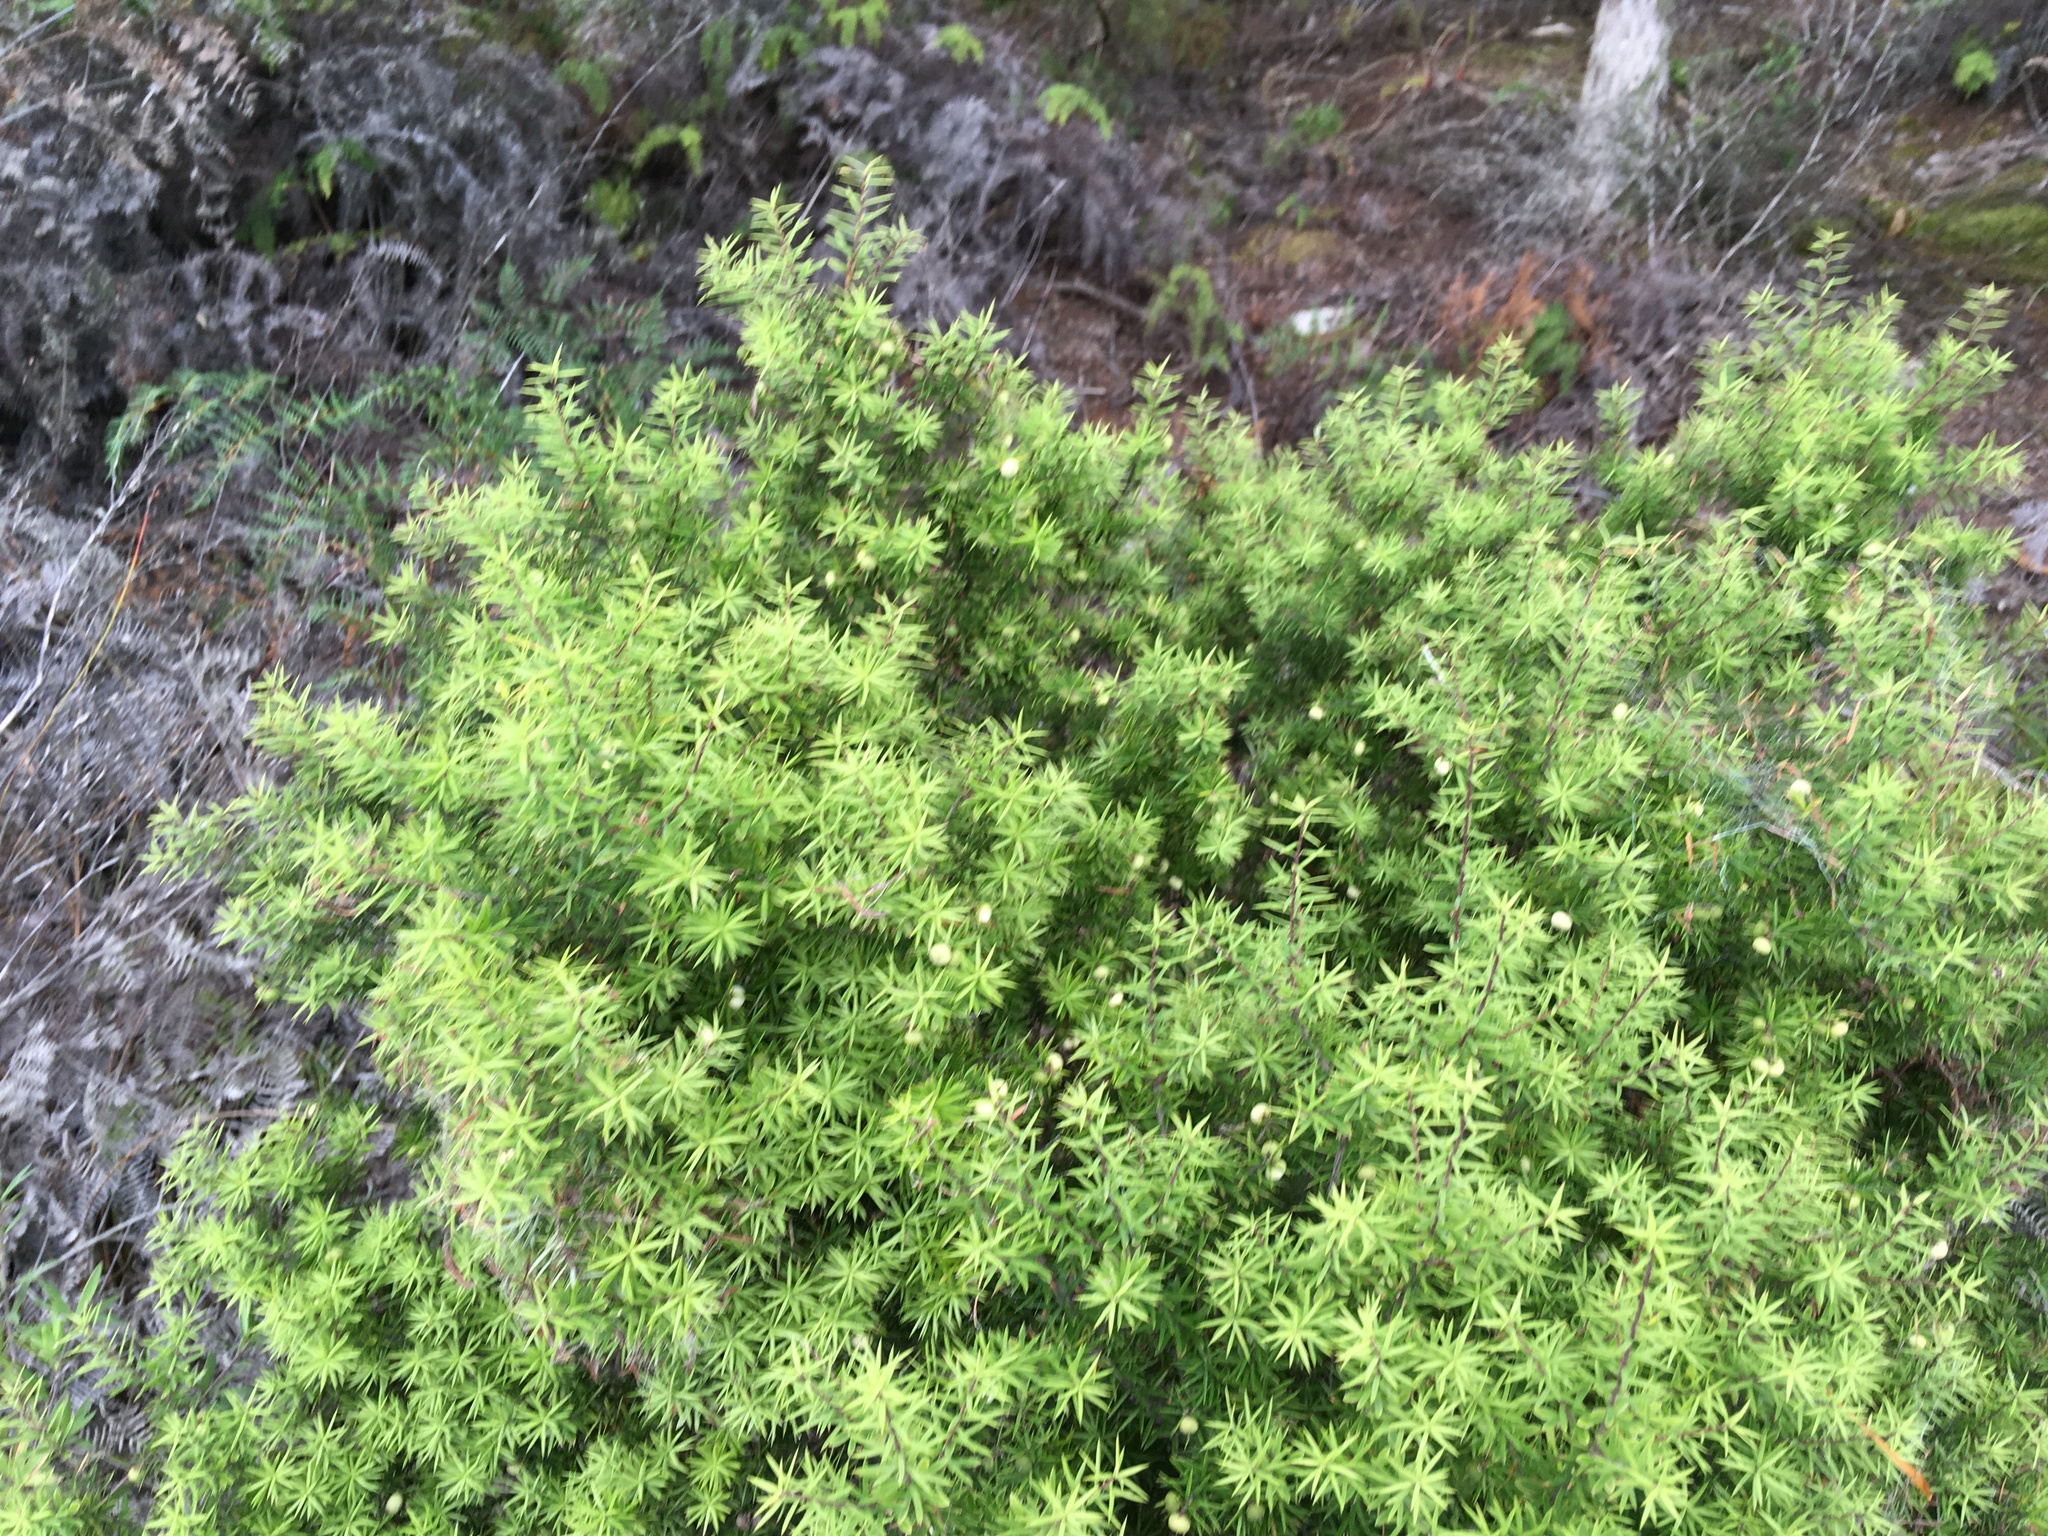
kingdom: Plantae
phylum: Tracheophyta
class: Magnoliopsida
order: Ericales
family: Ericaceae
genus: Leptecophylla
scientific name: Leptecophylla juniperina
